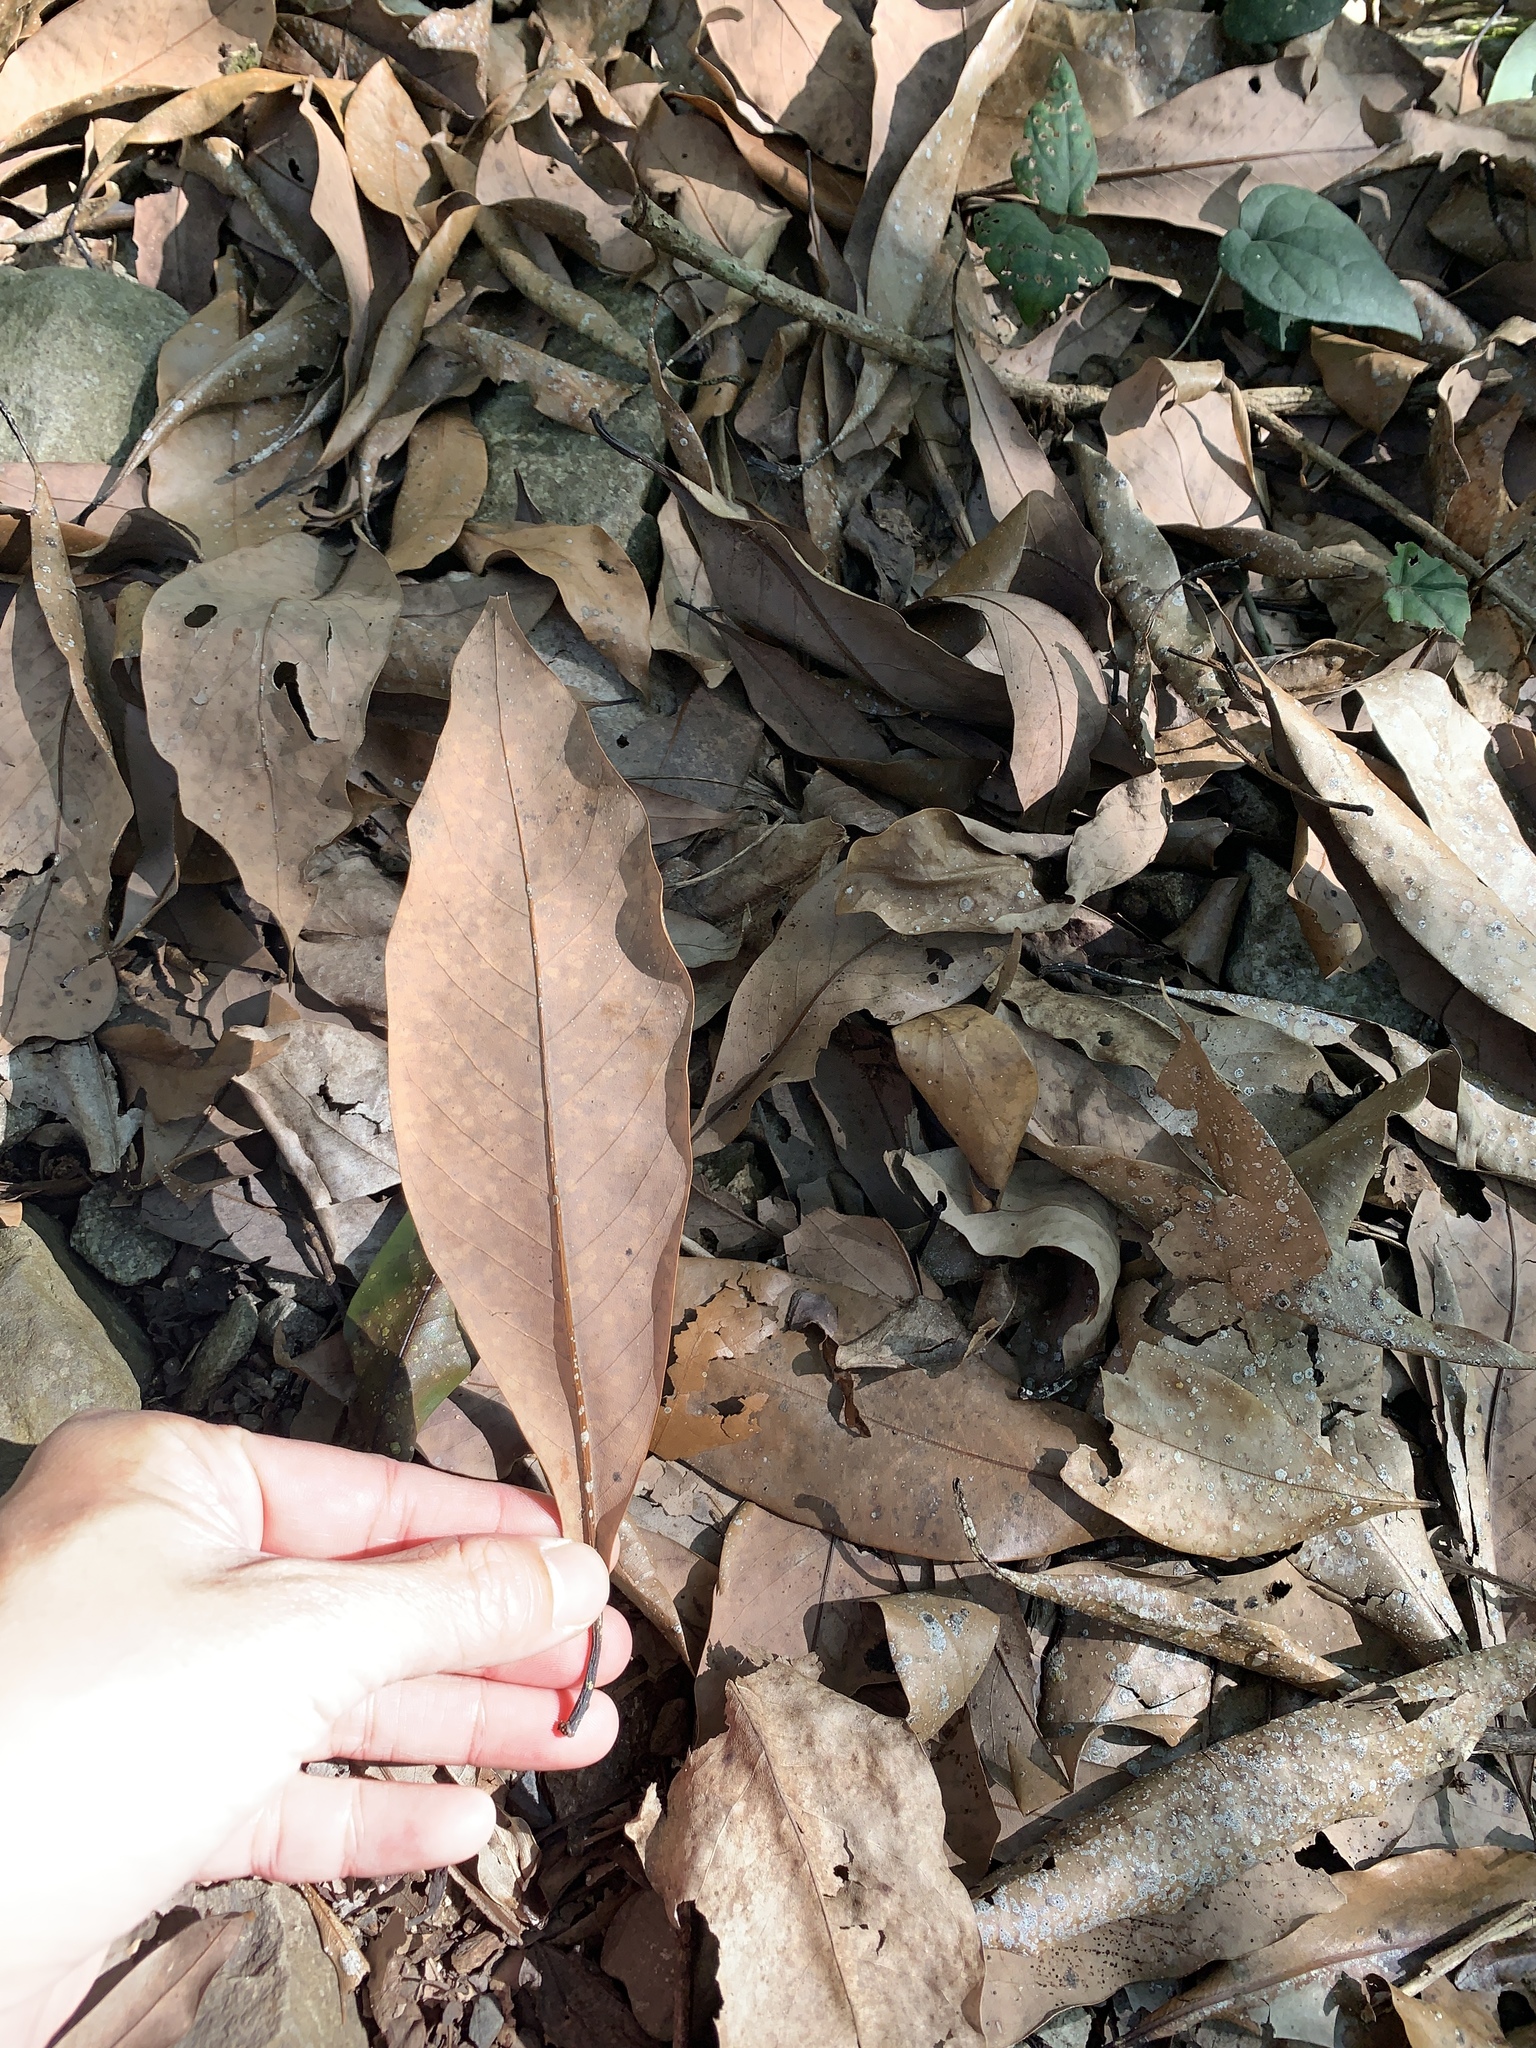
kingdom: Plantae
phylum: Tracheophyta
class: Magnoliopsida
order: Laurales
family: Lauraceae
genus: Machilus
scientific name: Machilus japonica
